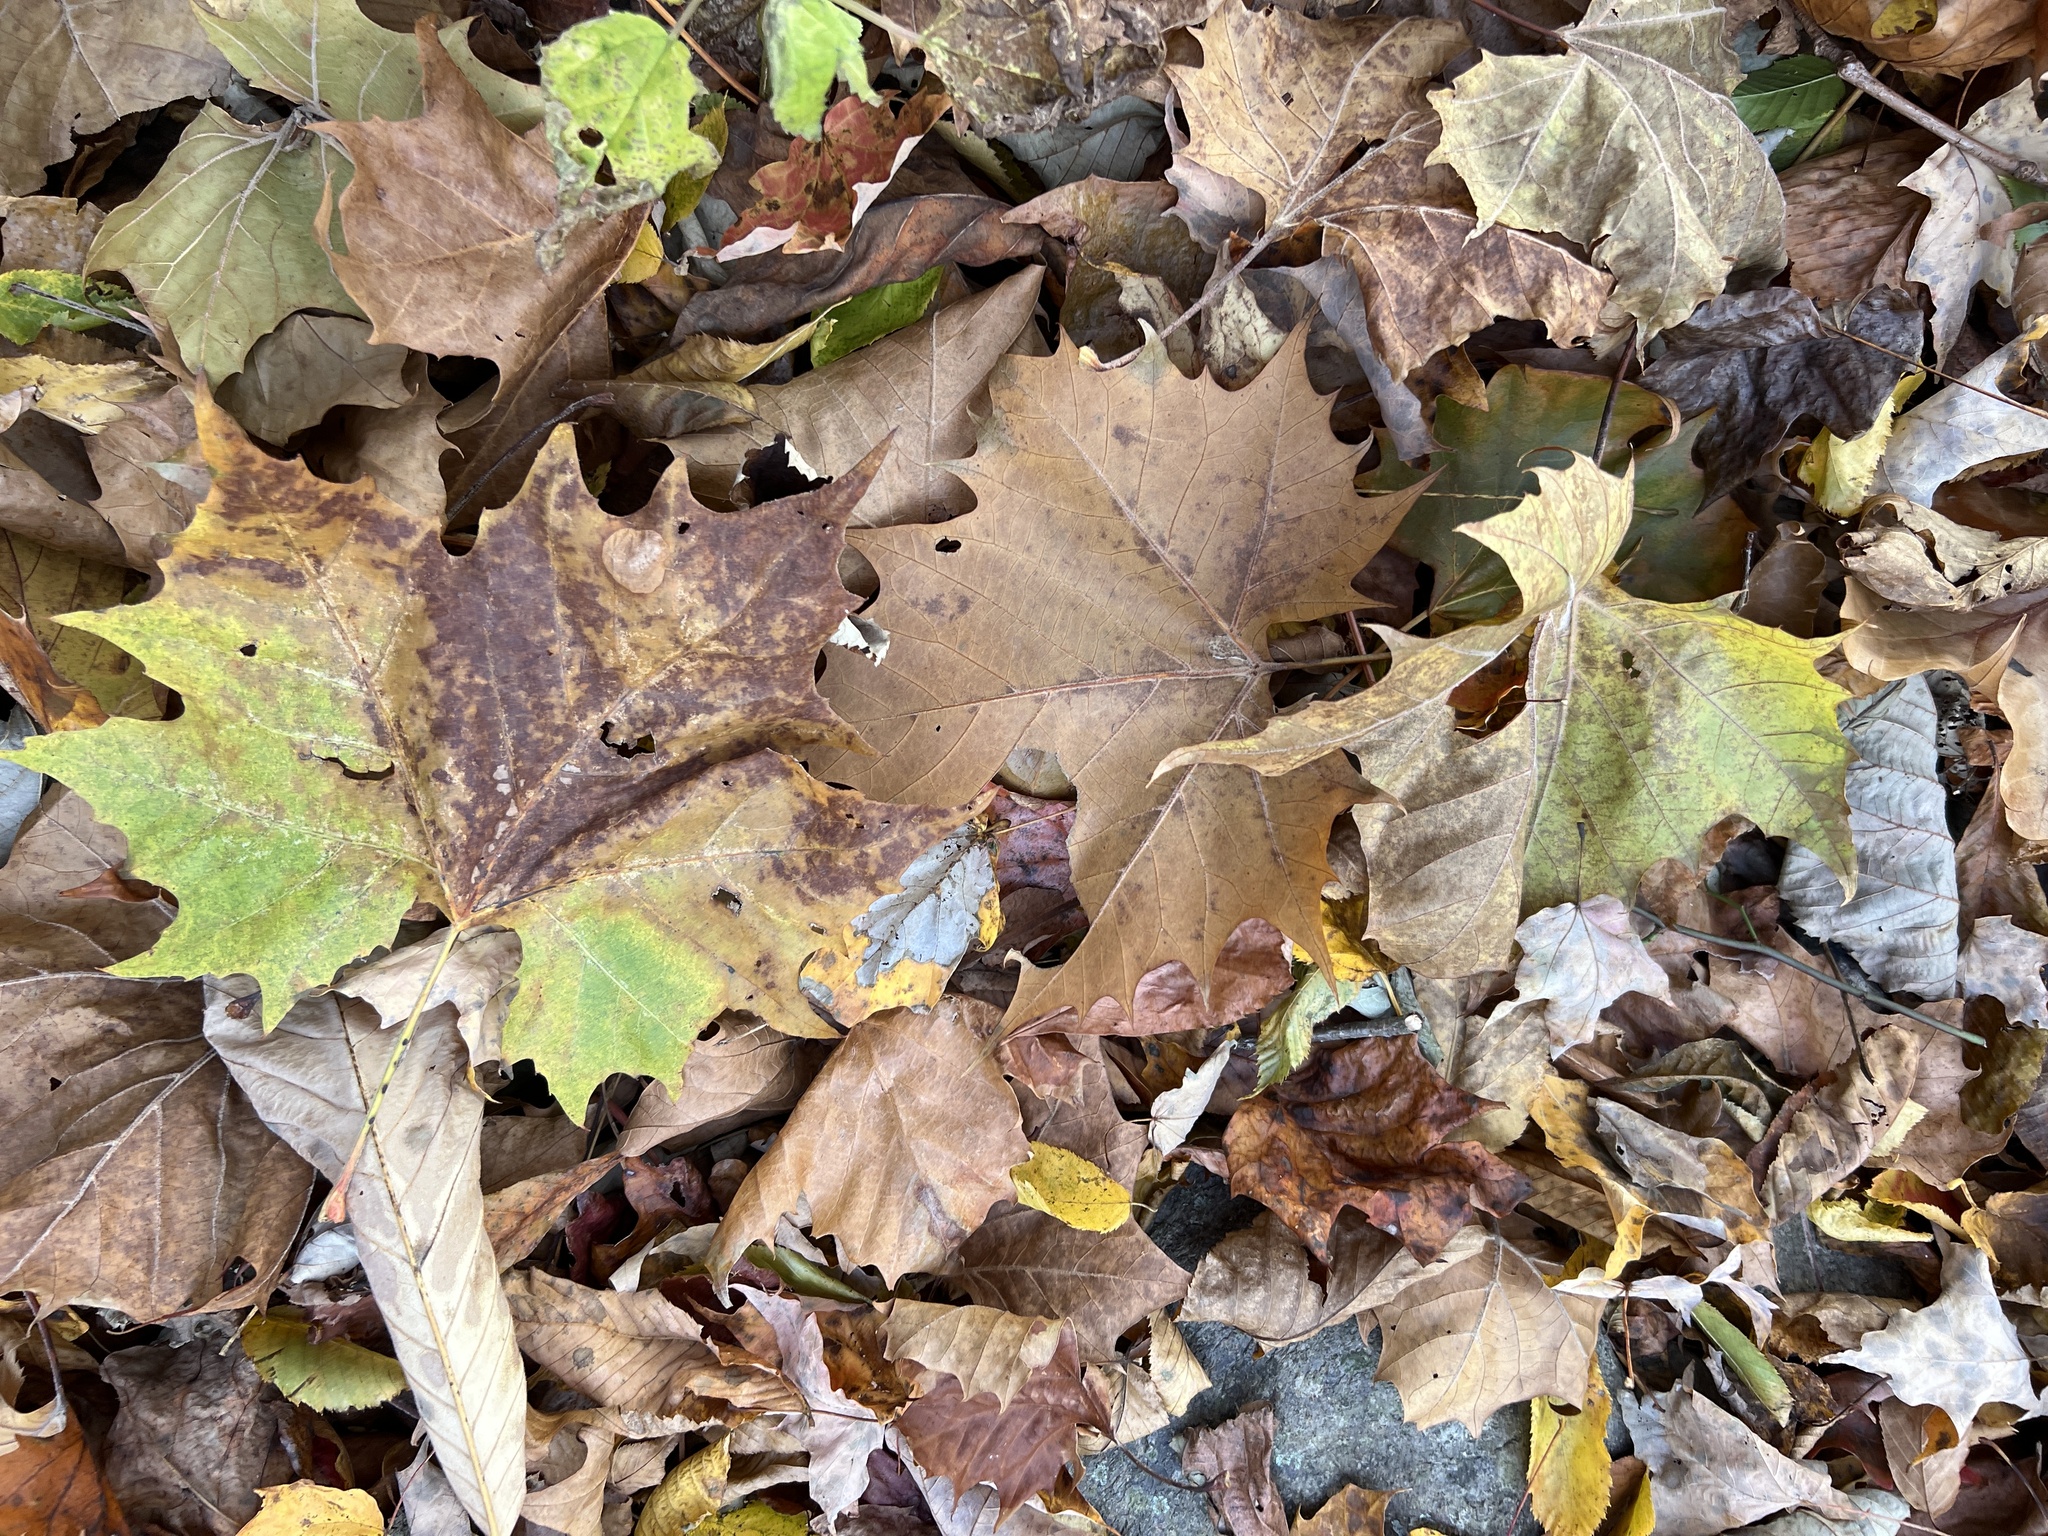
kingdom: Plantae
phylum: Tracheophyta
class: Magnoliopsida
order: Proteales
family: Platanaceae
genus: Platanus
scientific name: Platanus occidentalis
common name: American sycamore
